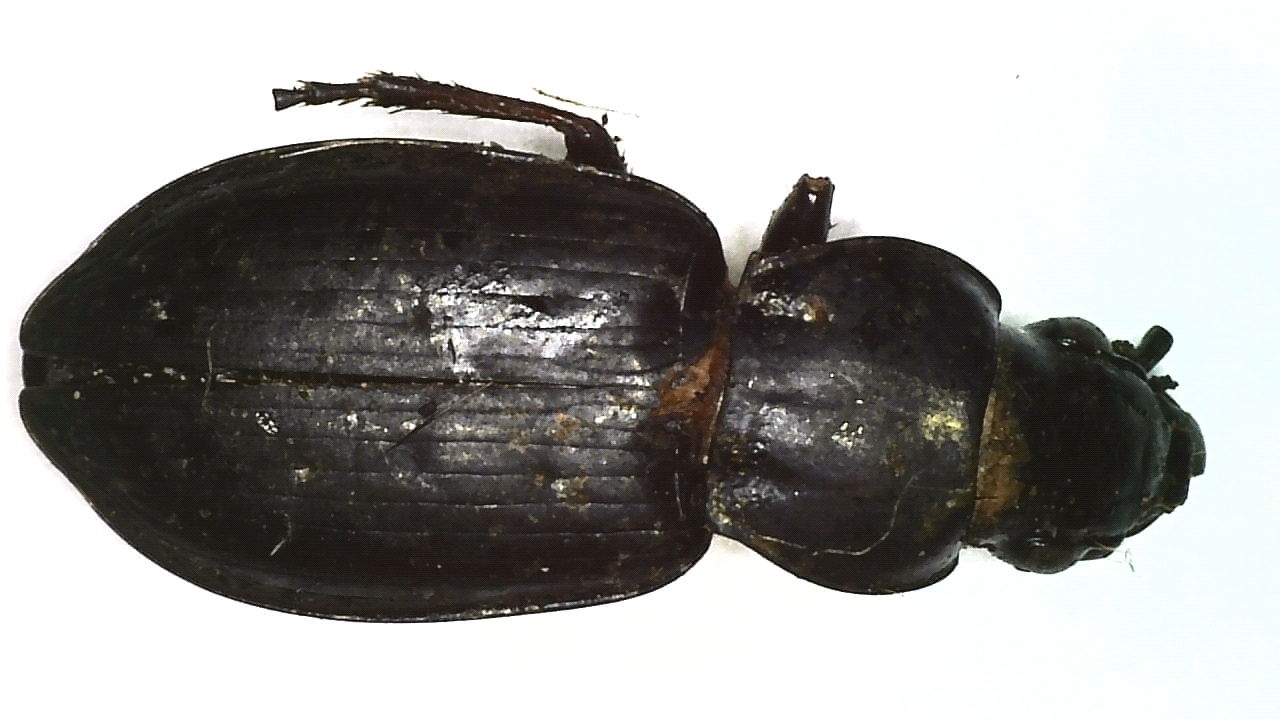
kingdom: Animalia
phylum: Arthropoda
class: Insecta
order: Coleoptera
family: Carabidae
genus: Pterostichus
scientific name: Pterostichus oblongopunctatus
